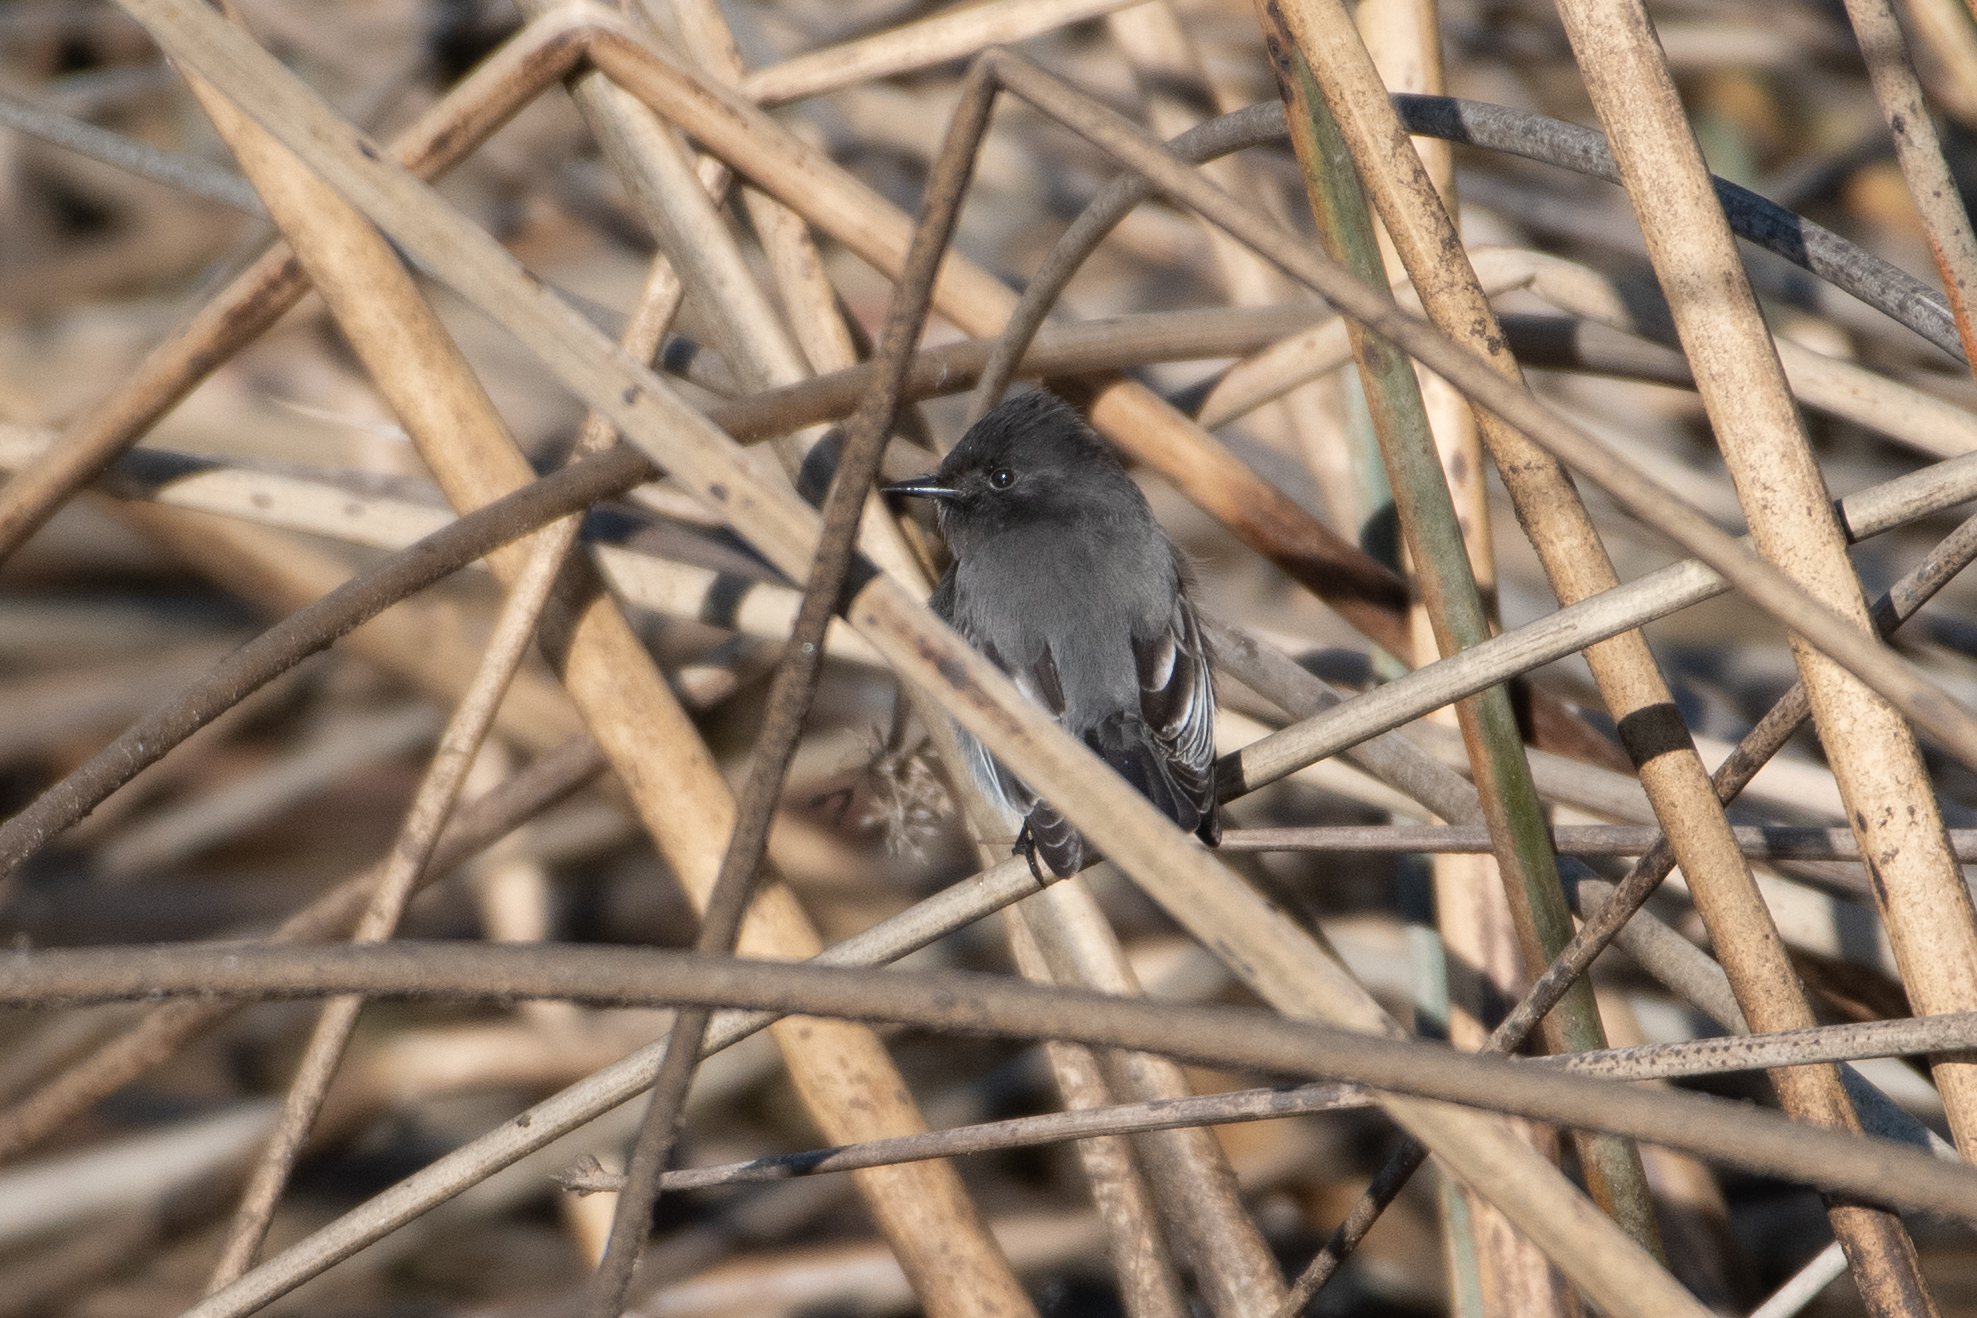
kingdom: Animalia
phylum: Chordata
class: Aves
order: Passeriformes
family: Tyrannidae
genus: Sayornis
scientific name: Sayornis nigricans
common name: Black phoebe
